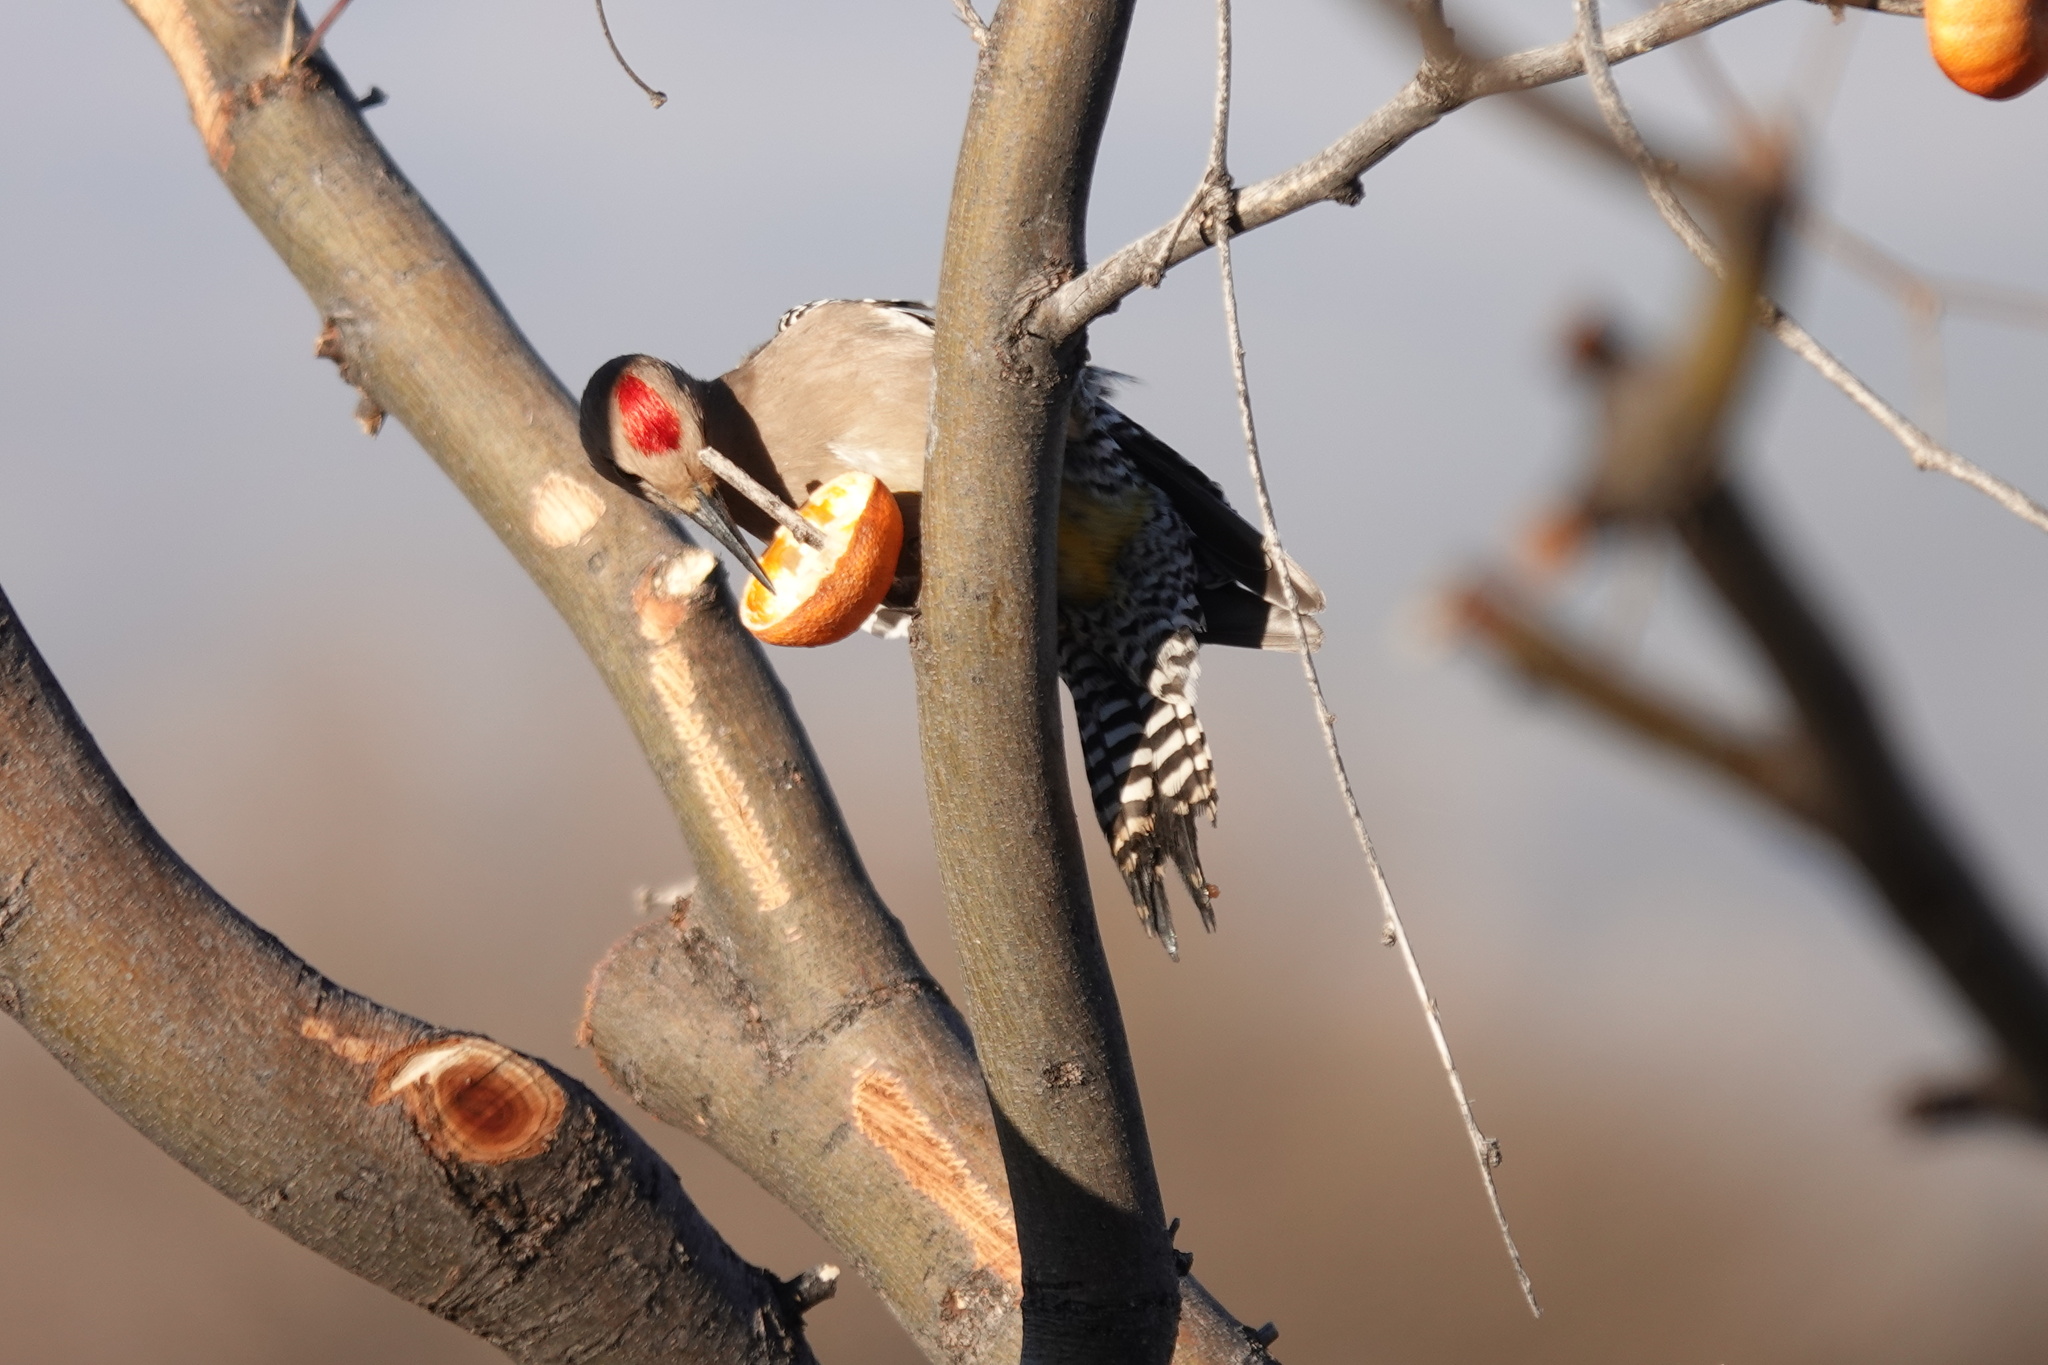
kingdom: Animalia
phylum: Chordata
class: Aves
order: Piciformes
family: Picidae
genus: Melanerpes
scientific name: Melanerpes uropygialis
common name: Gila woodpecker
